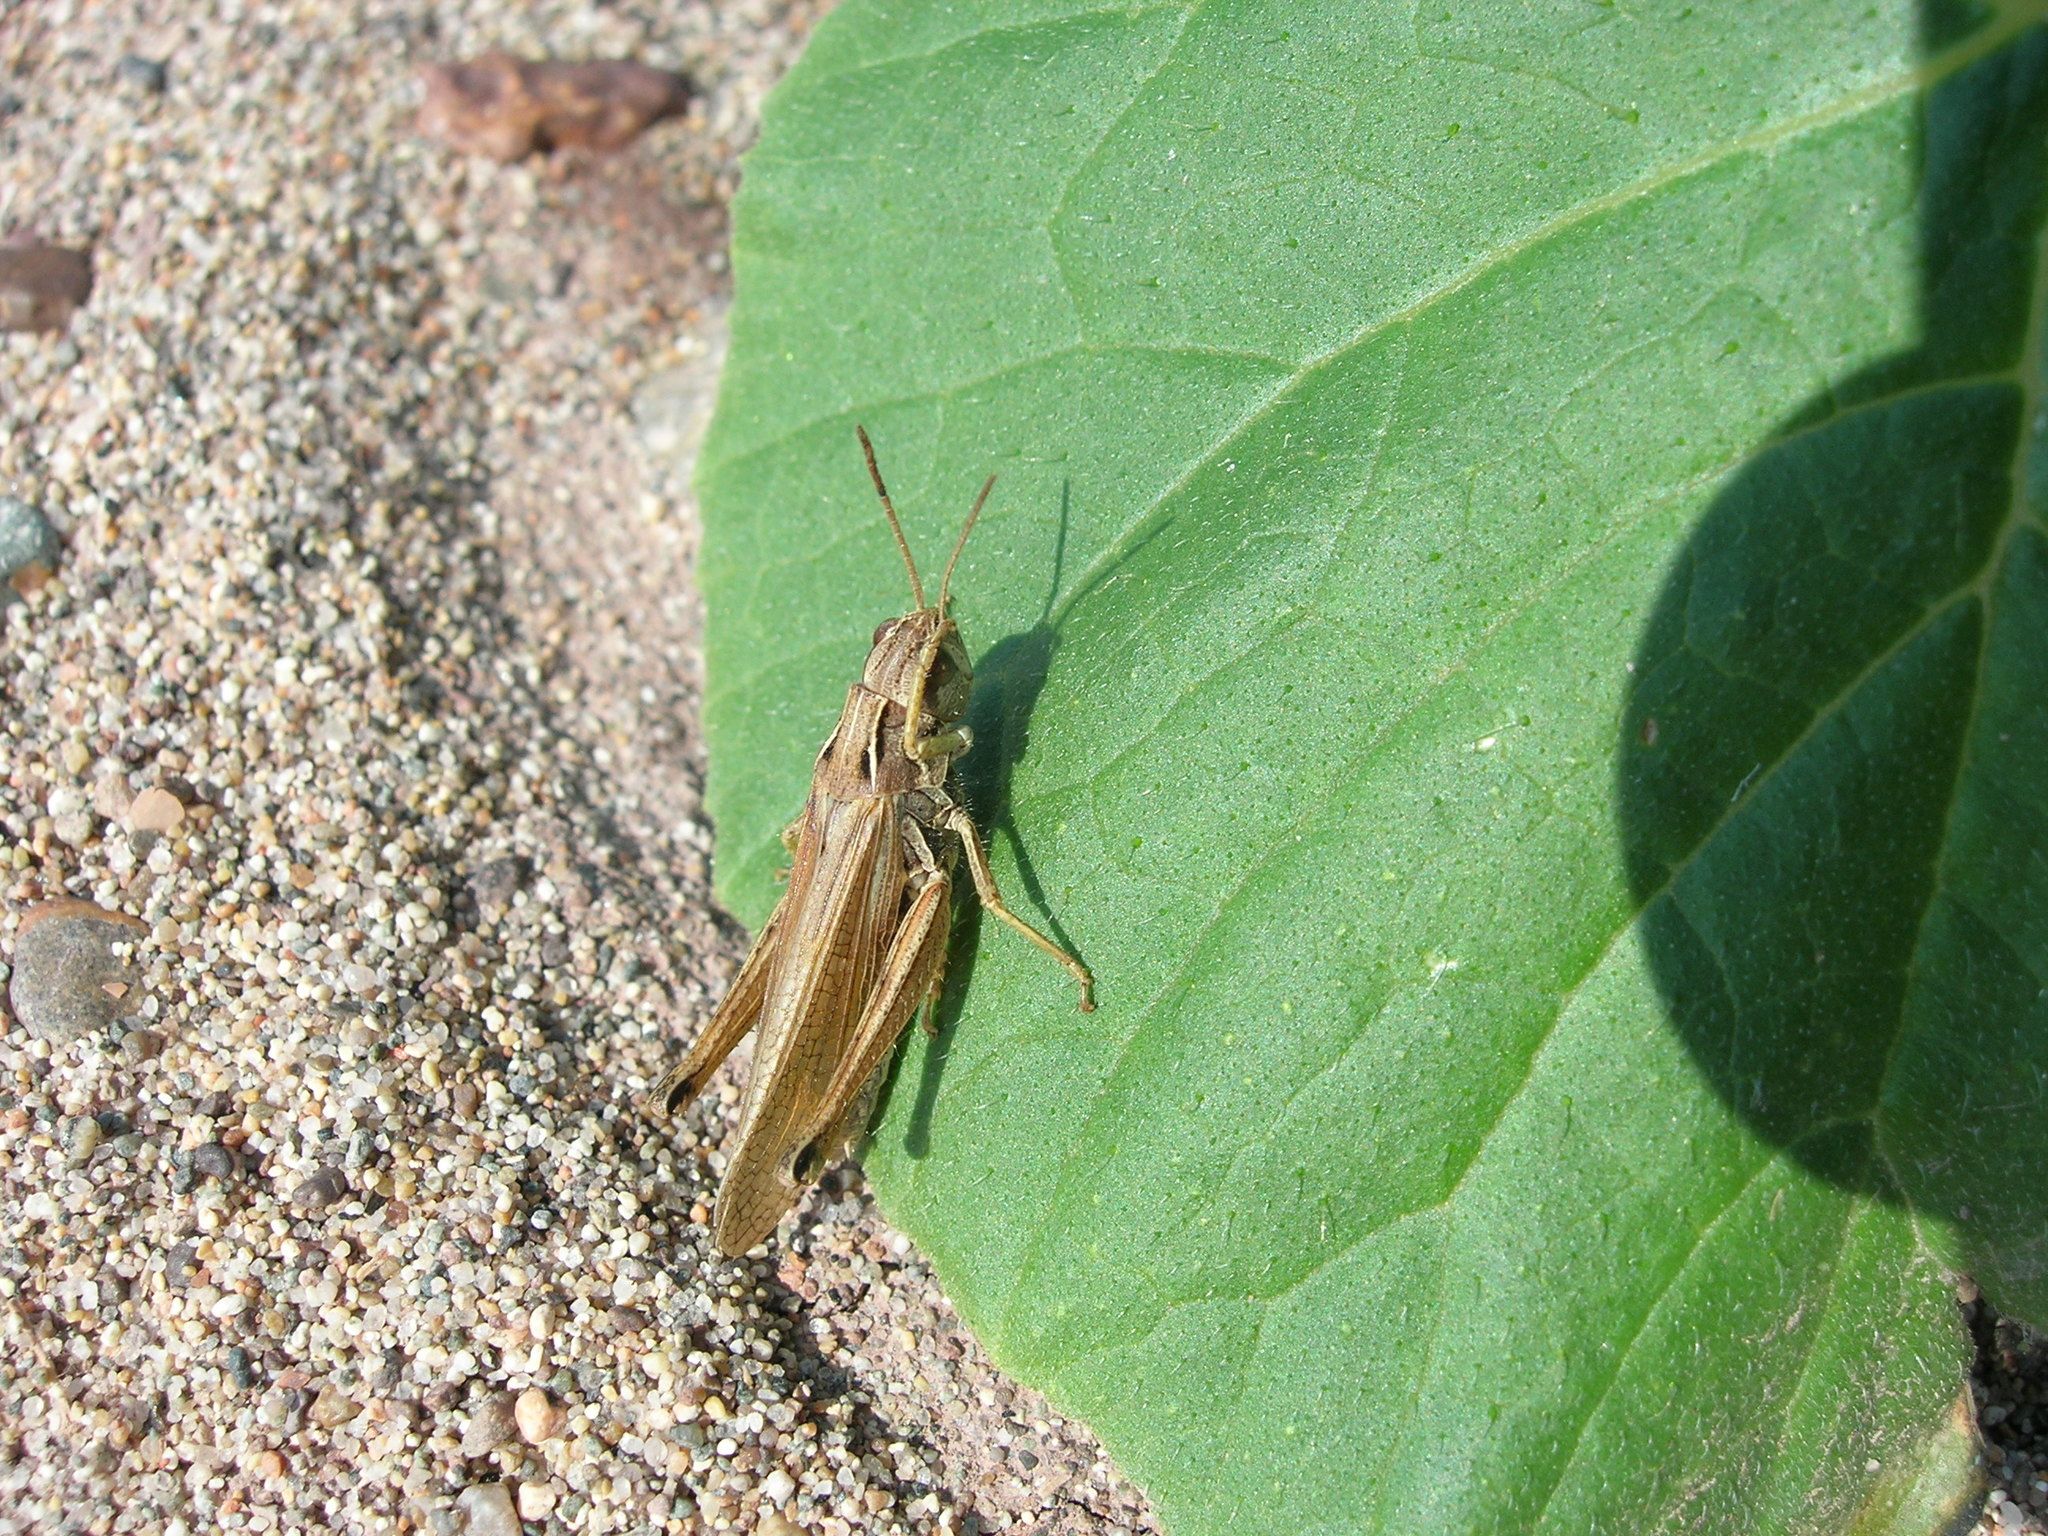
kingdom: Animalia
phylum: Arthropoda
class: Insecta
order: Orthoptera
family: Acrididae
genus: Chorthippus
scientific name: Chorthippus fallax
